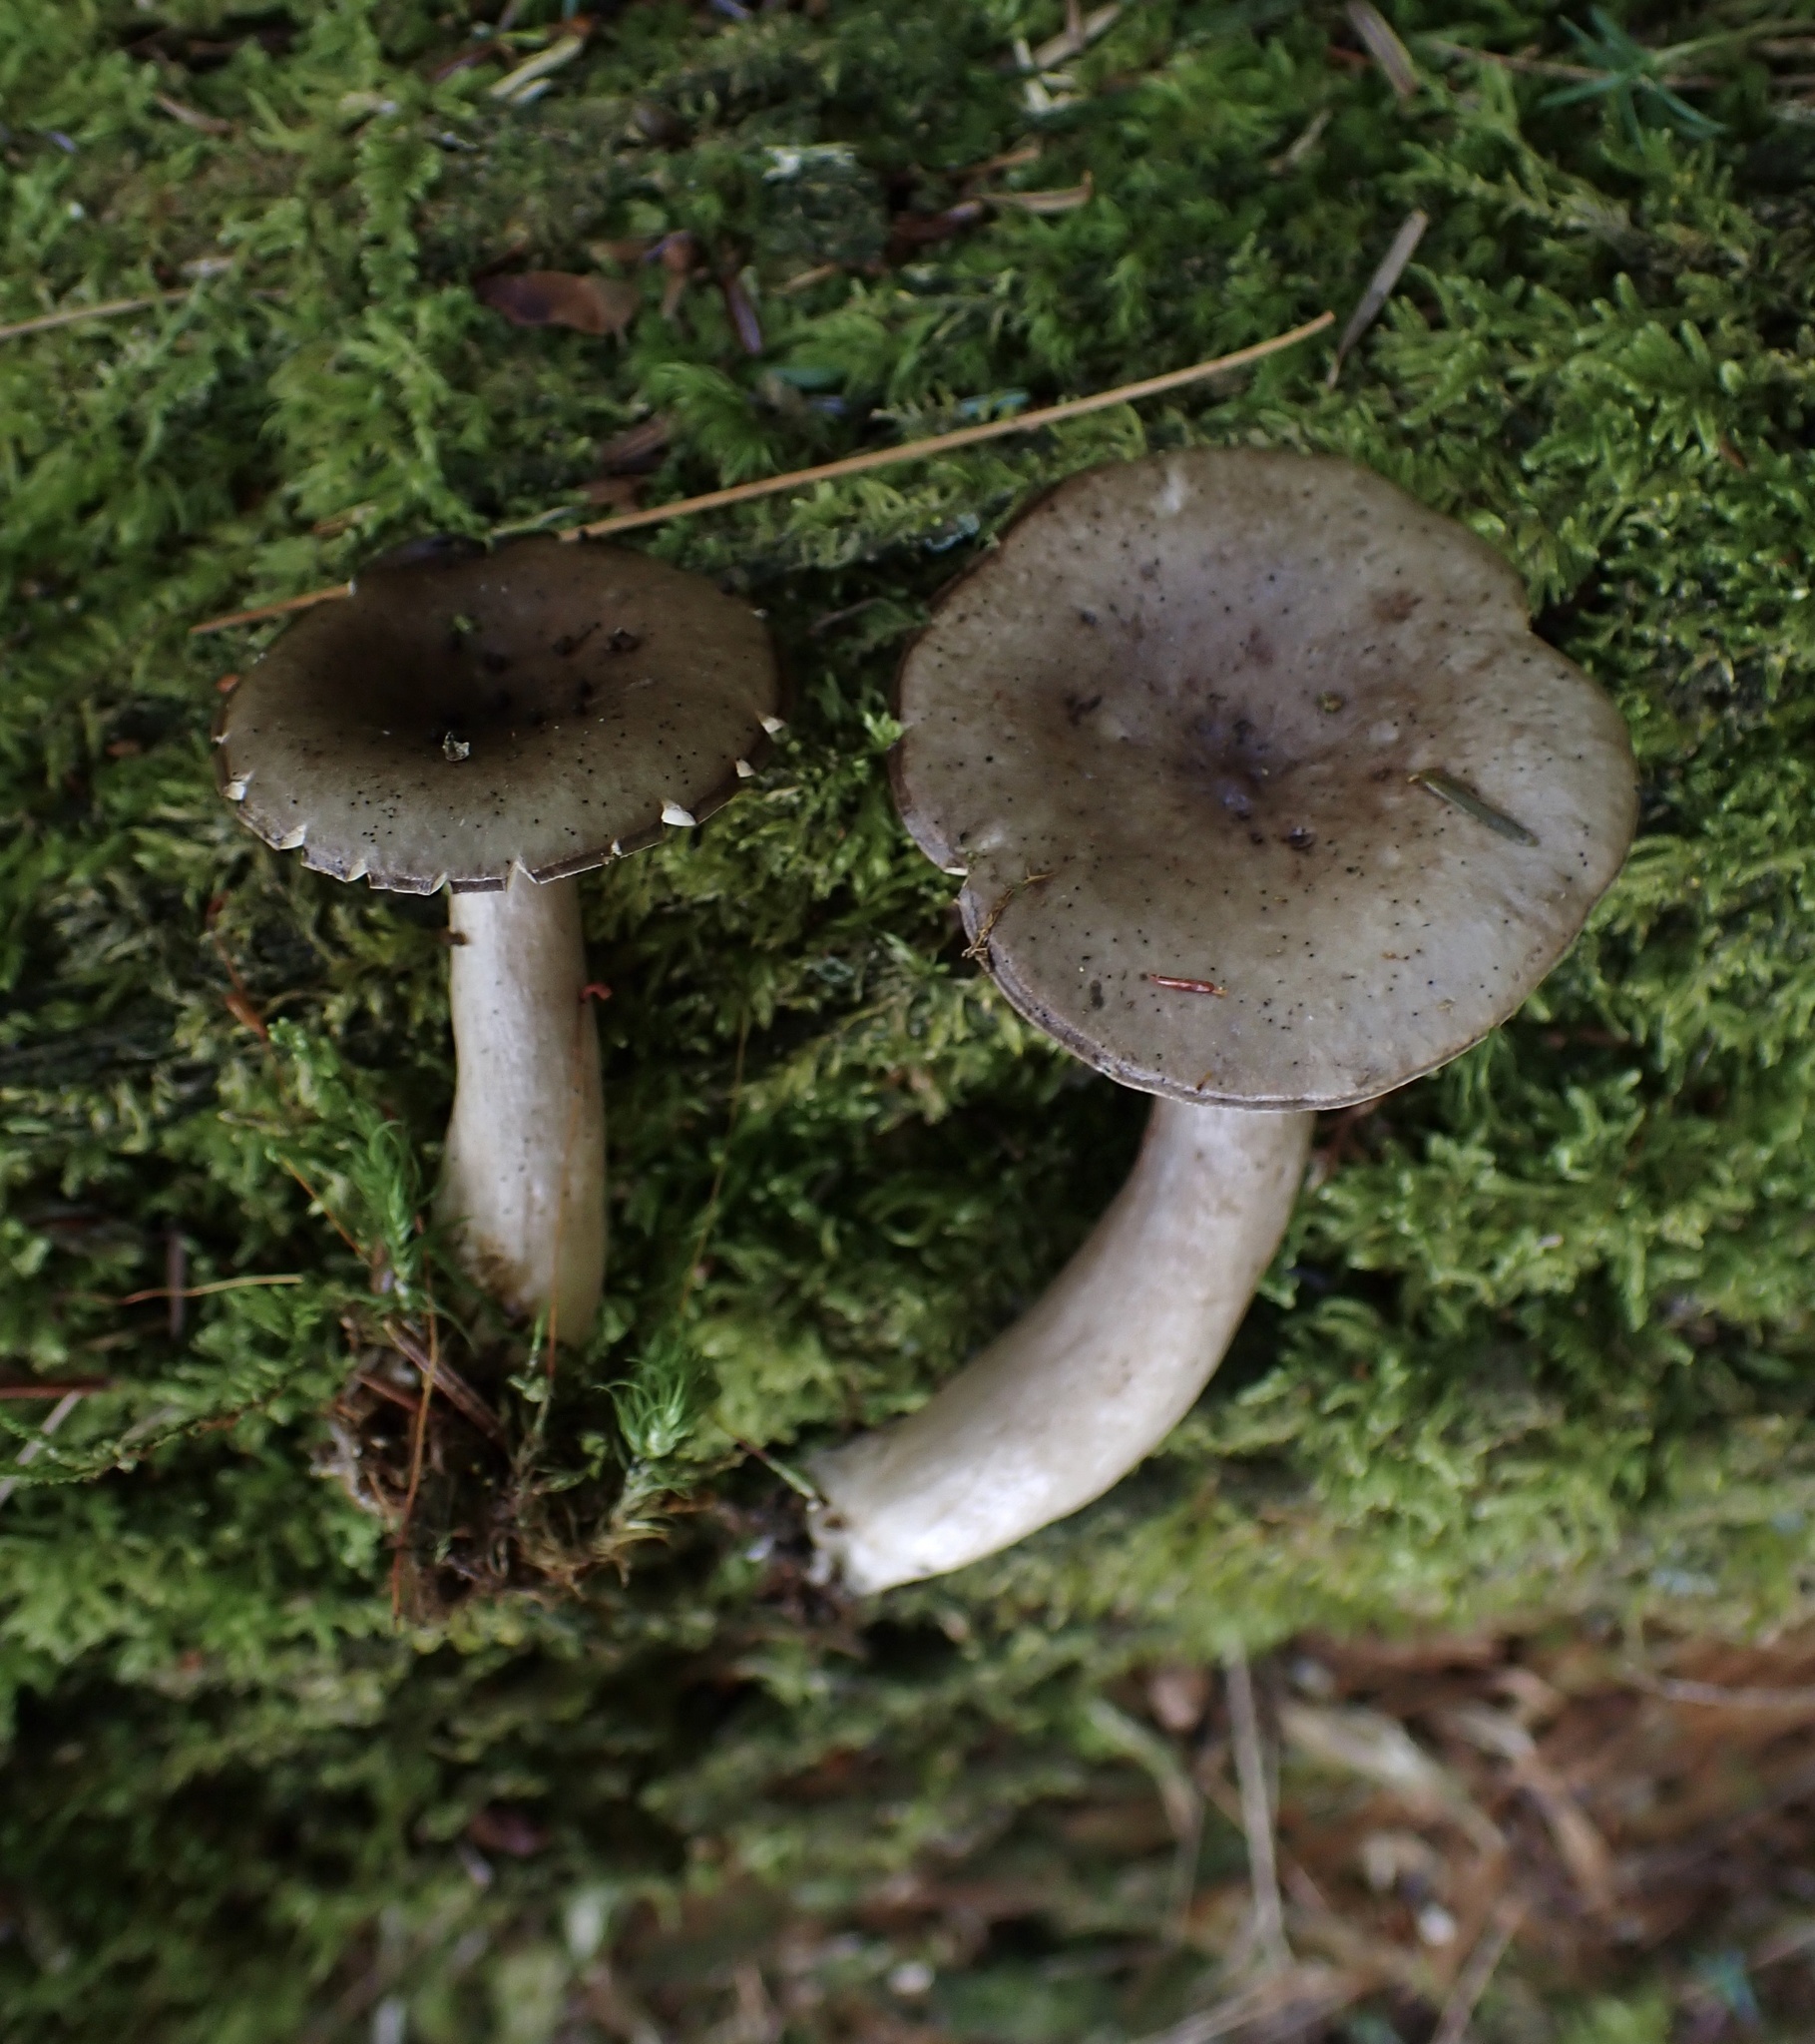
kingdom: Fungi
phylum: Basidiomycota
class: Agaricomycetes
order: Russulales
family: Russulaceae
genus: Lactarius
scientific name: Lactarius mucidus
